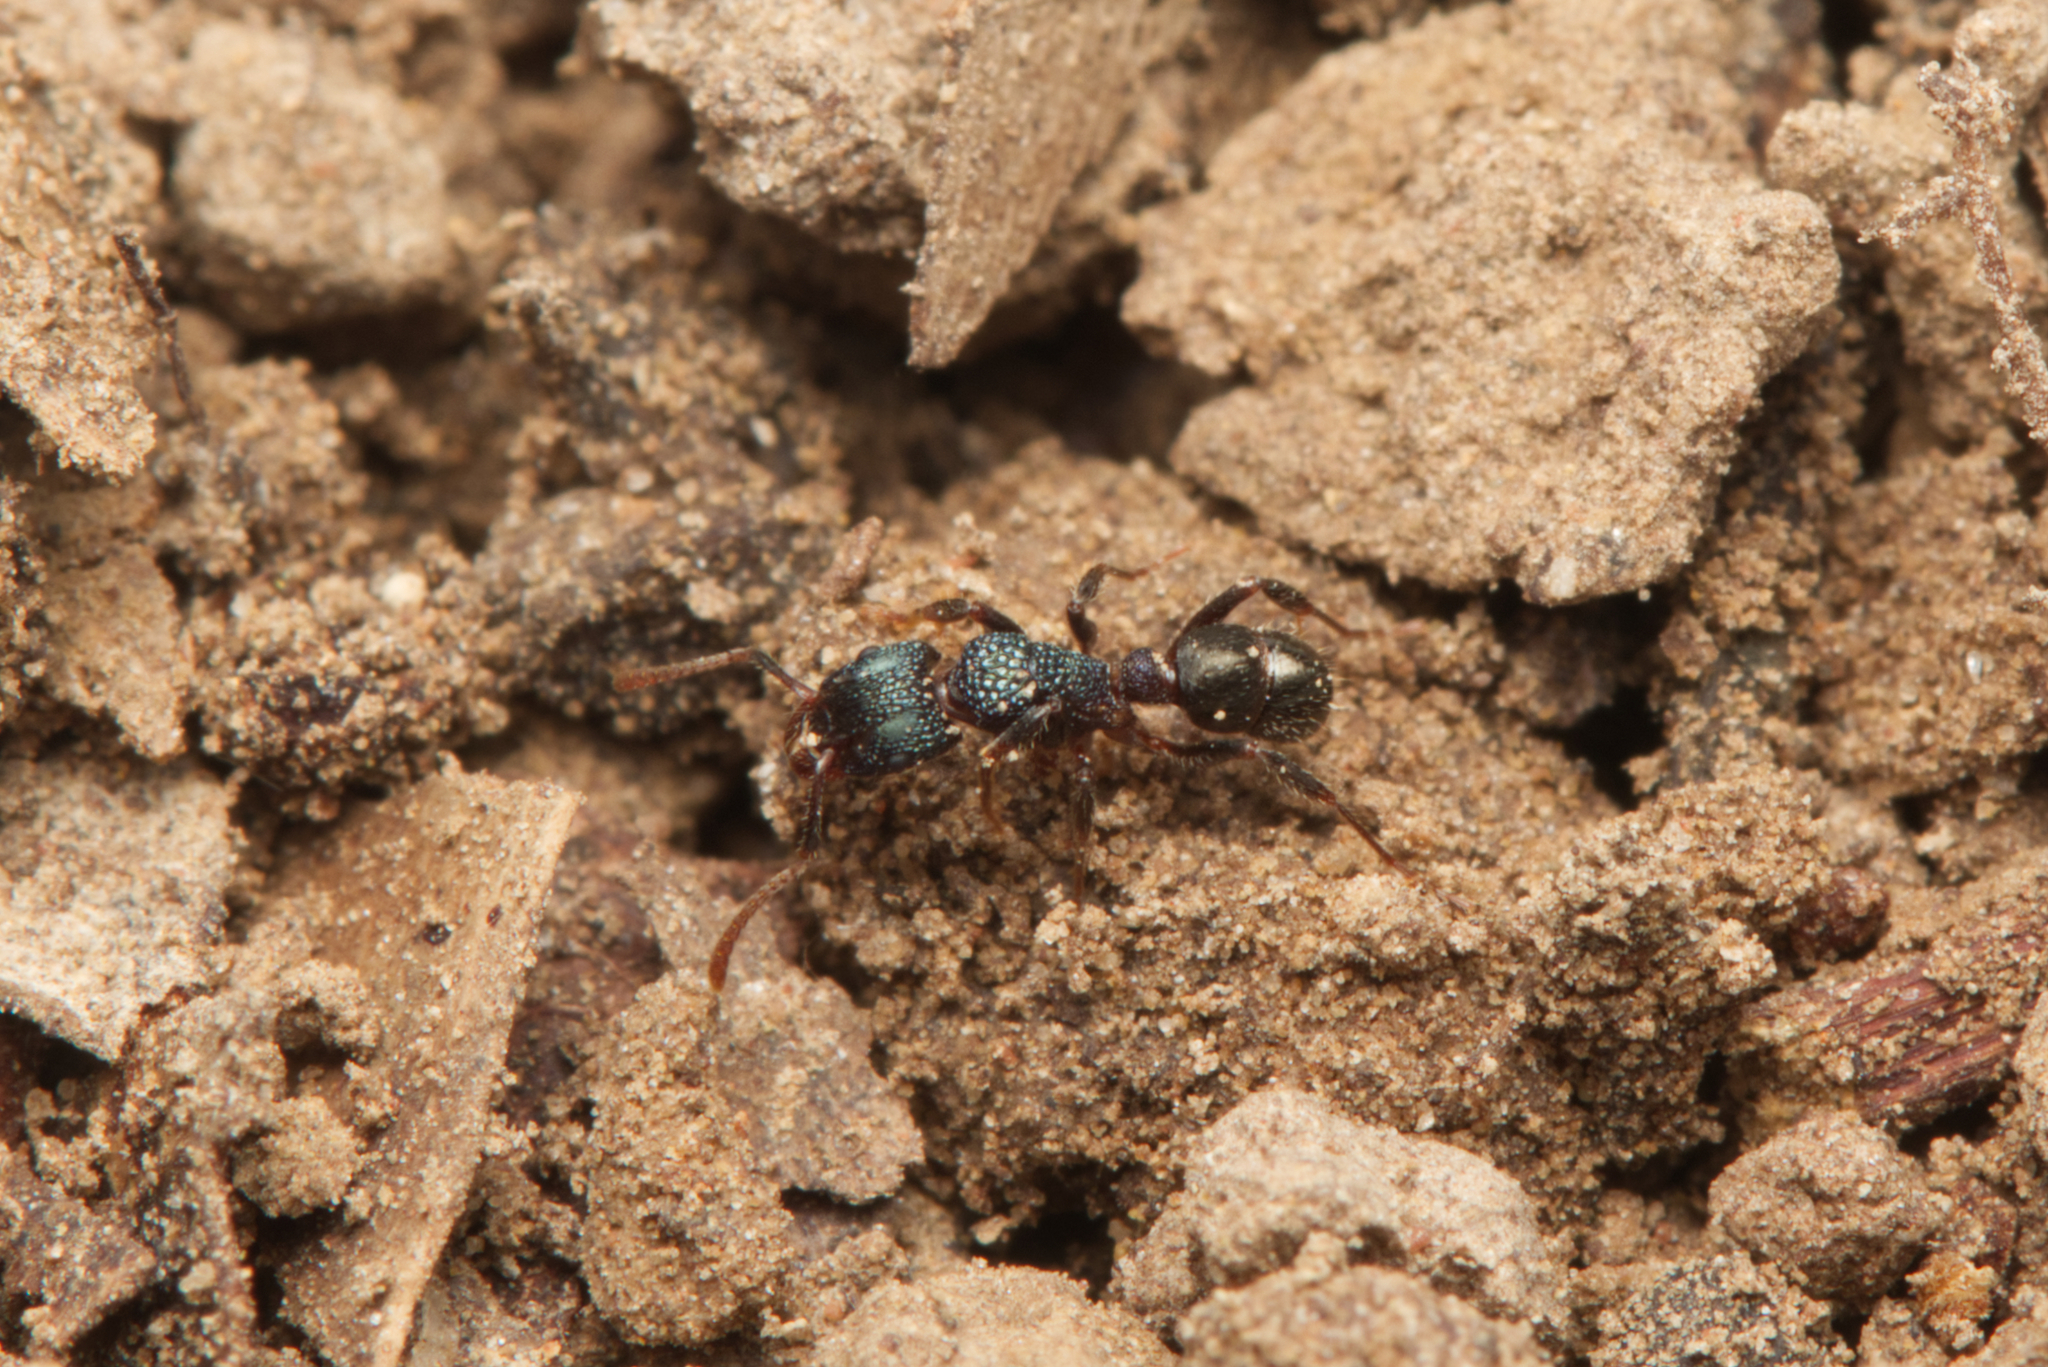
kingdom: Animalia
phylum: Arthropoda
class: Insecta
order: Hymenoptera
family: Formicidae
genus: Rhytidoponera
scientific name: Rhytidoponera victoriae
